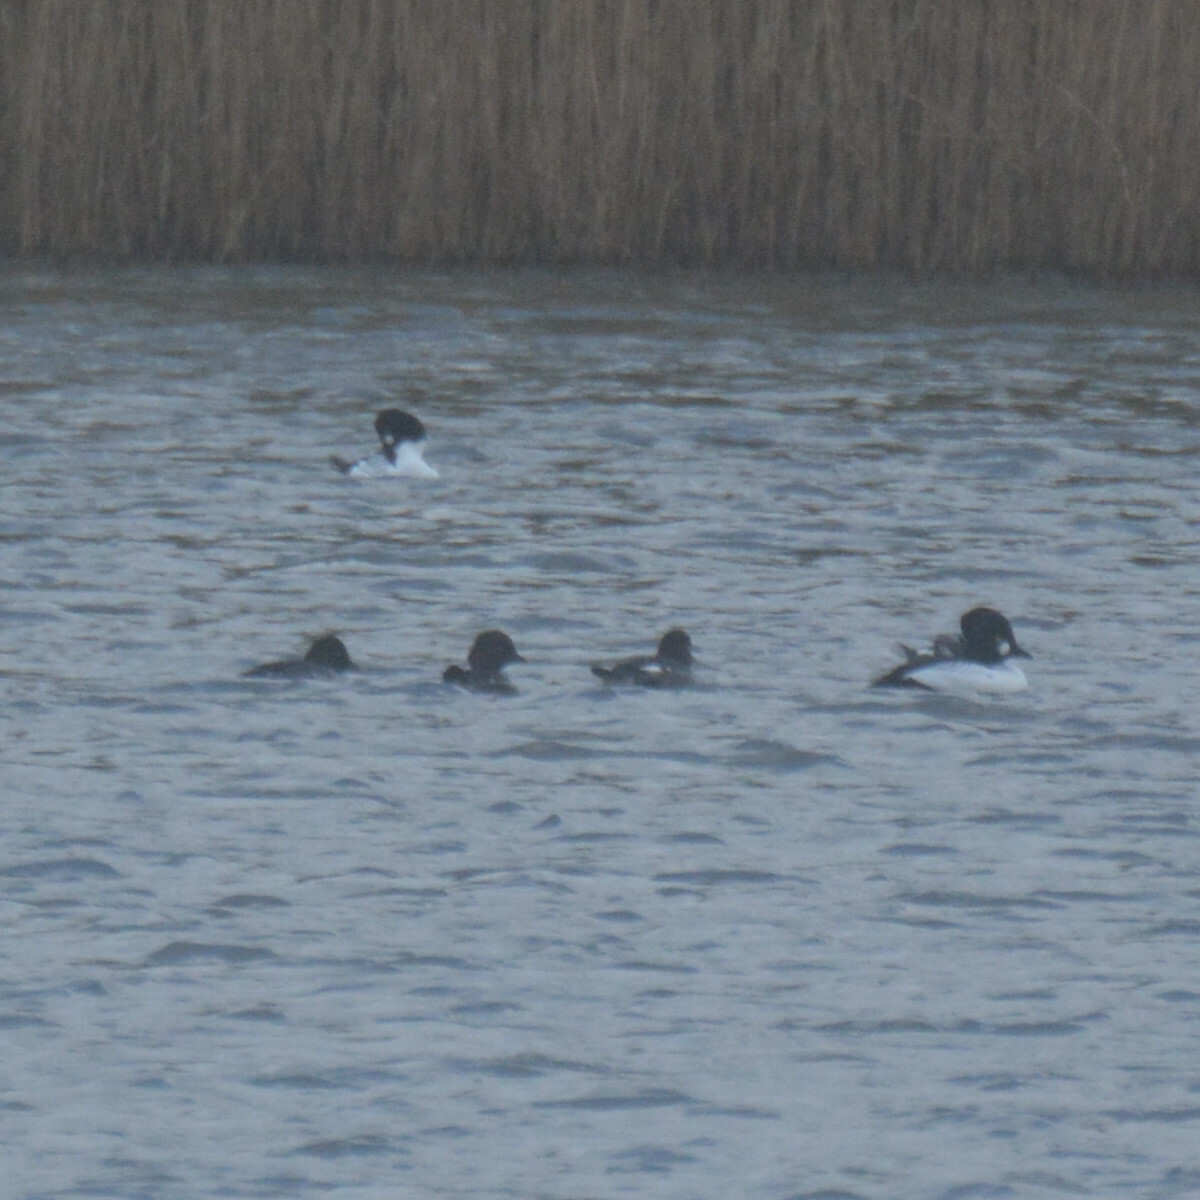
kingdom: Animalia
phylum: Chordata
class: Aves
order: Anseriformes
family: Anatidae
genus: Bucephala
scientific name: Bucephala clangula
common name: Common goldeneye
